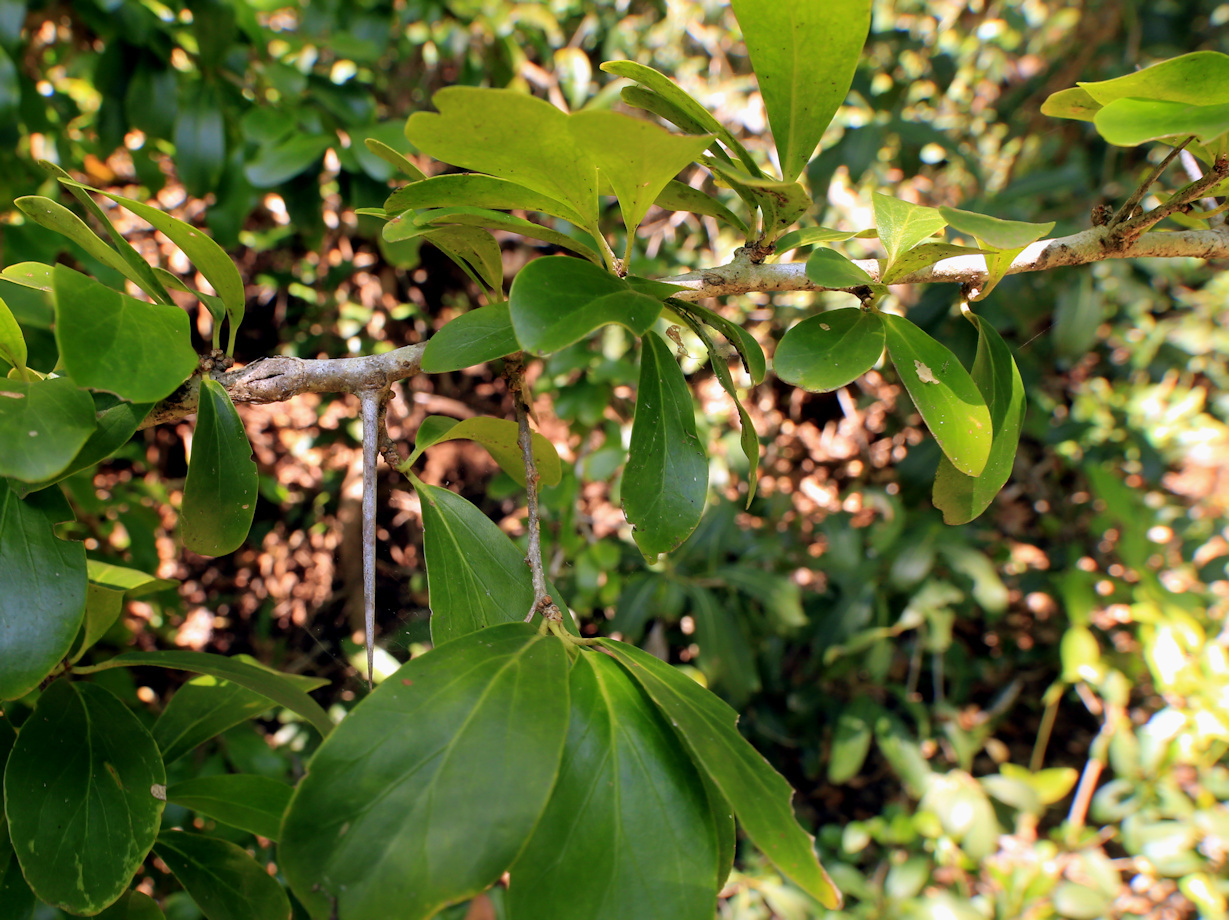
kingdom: Plantae
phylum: Tracheophyta
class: Magnoliopsida
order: Malpighiales
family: Salicaceae
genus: Dovyalis
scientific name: Dovyalis caffra
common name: Kei-apple
